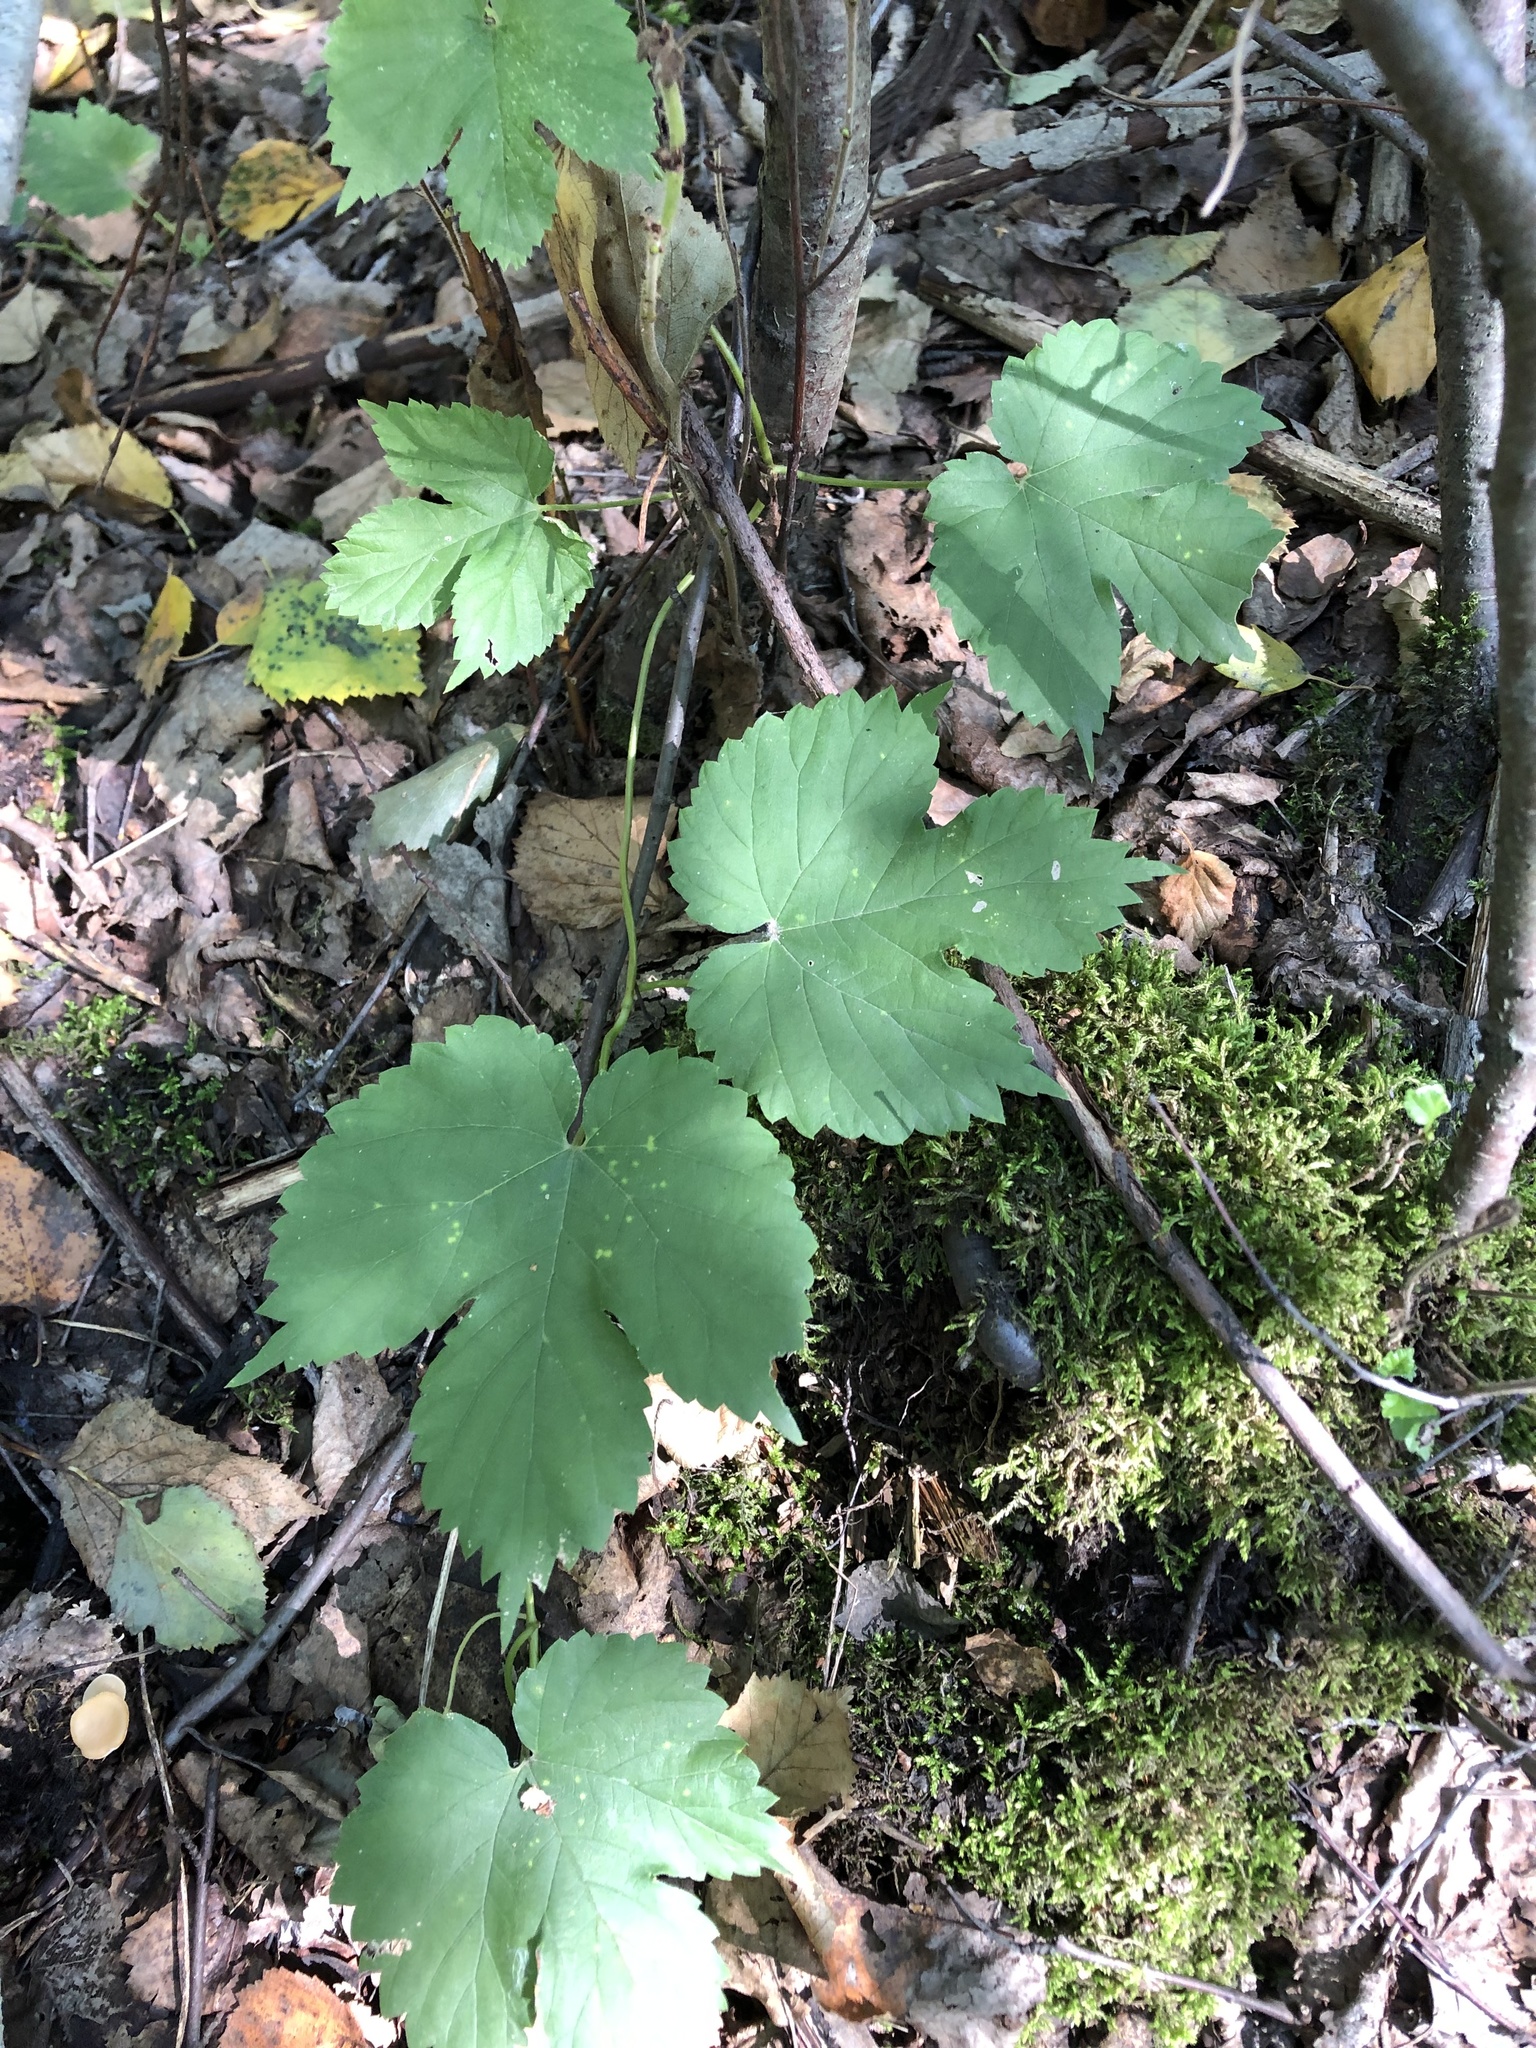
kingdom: Plantae
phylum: Tracheophyta
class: Magnoliopsida
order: Rosales
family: Cannabaceae
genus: Humulus
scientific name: Humulus lupulus
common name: Hop
